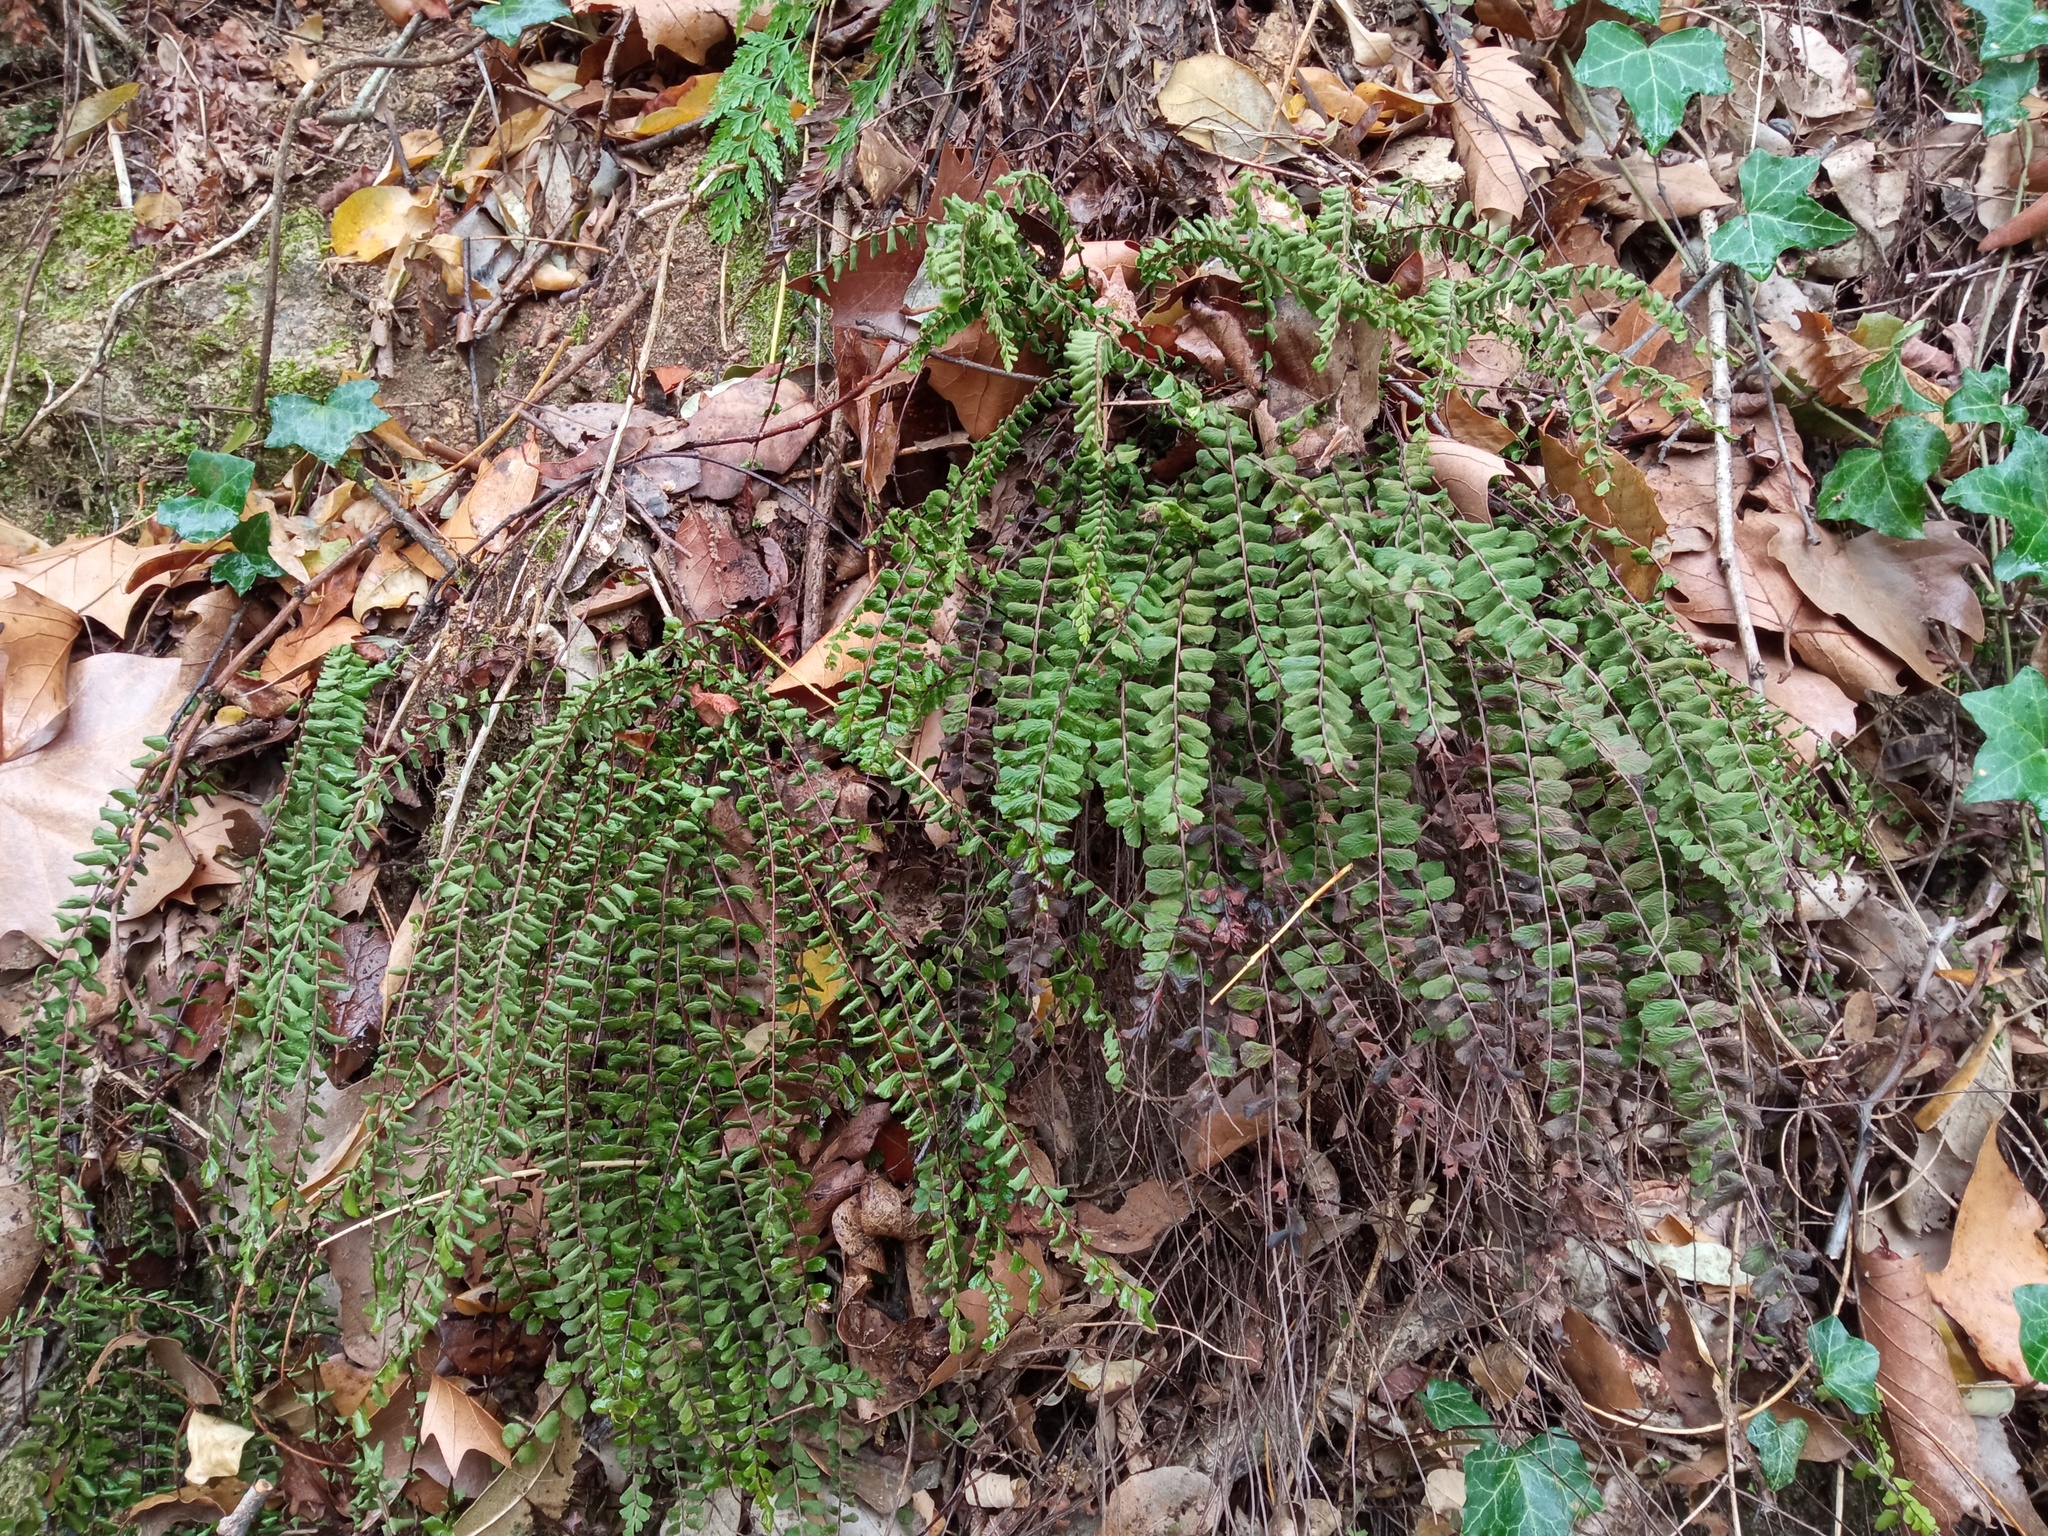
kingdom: Plantae
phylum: Tracheophyta
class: Polypodiopsida
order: Polypodiales
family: Aspleniaceae
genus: Asplenium
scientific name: Asplenium trichomanes
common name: Maidenhair spleenwort
